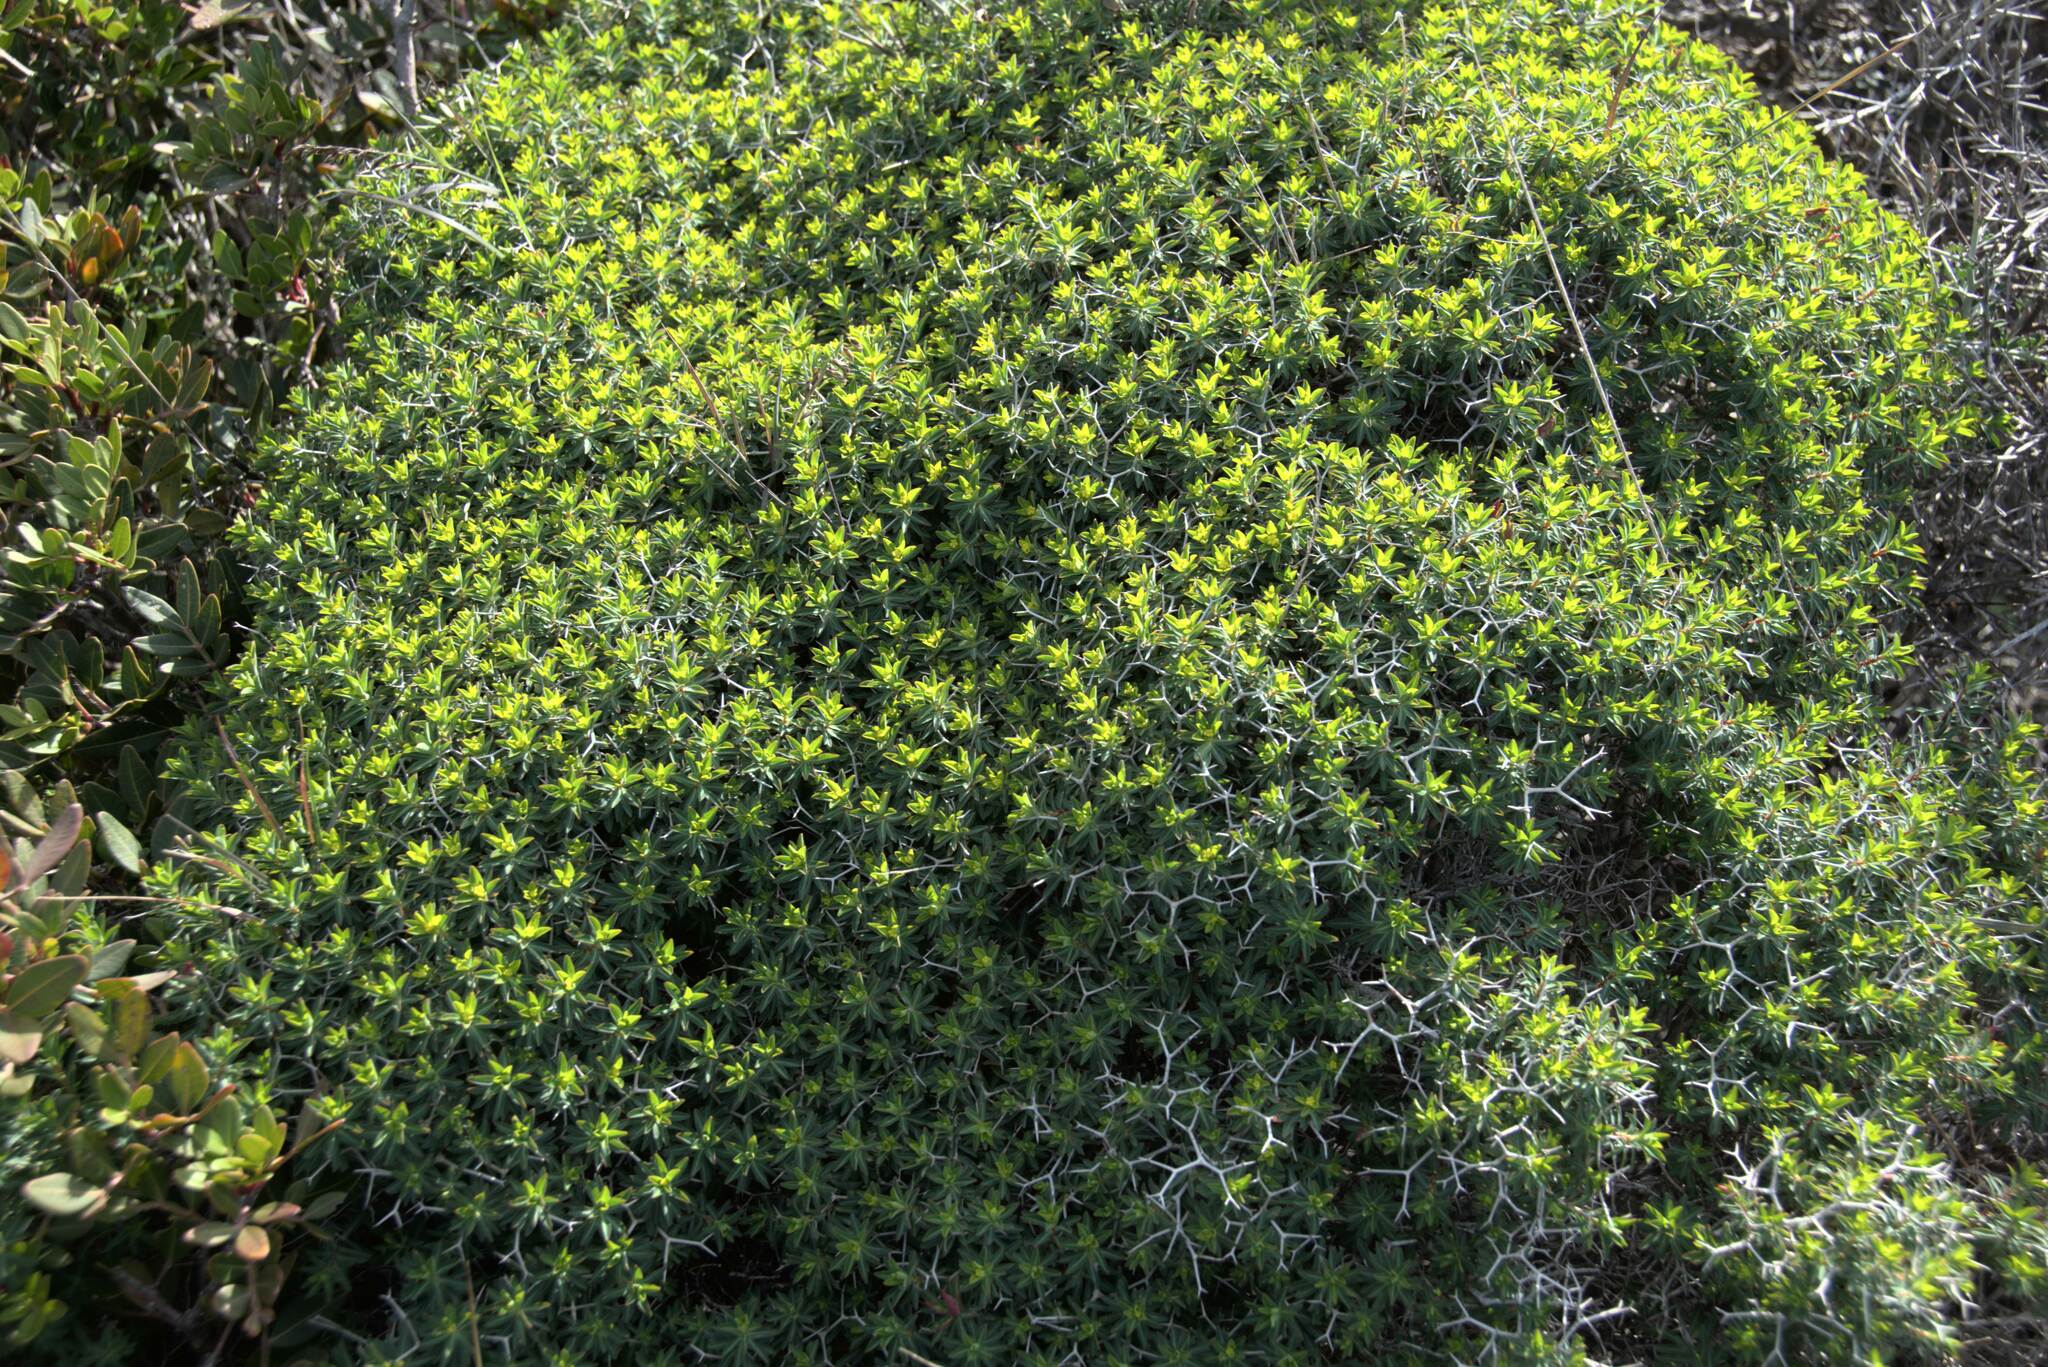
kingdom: Plantae
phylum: Tracheophyta
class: Magnoliopsida
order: Malpighiales
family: Euphorbiaceae
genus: Euphorbia
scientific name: Euphorbia acanthothamnos
